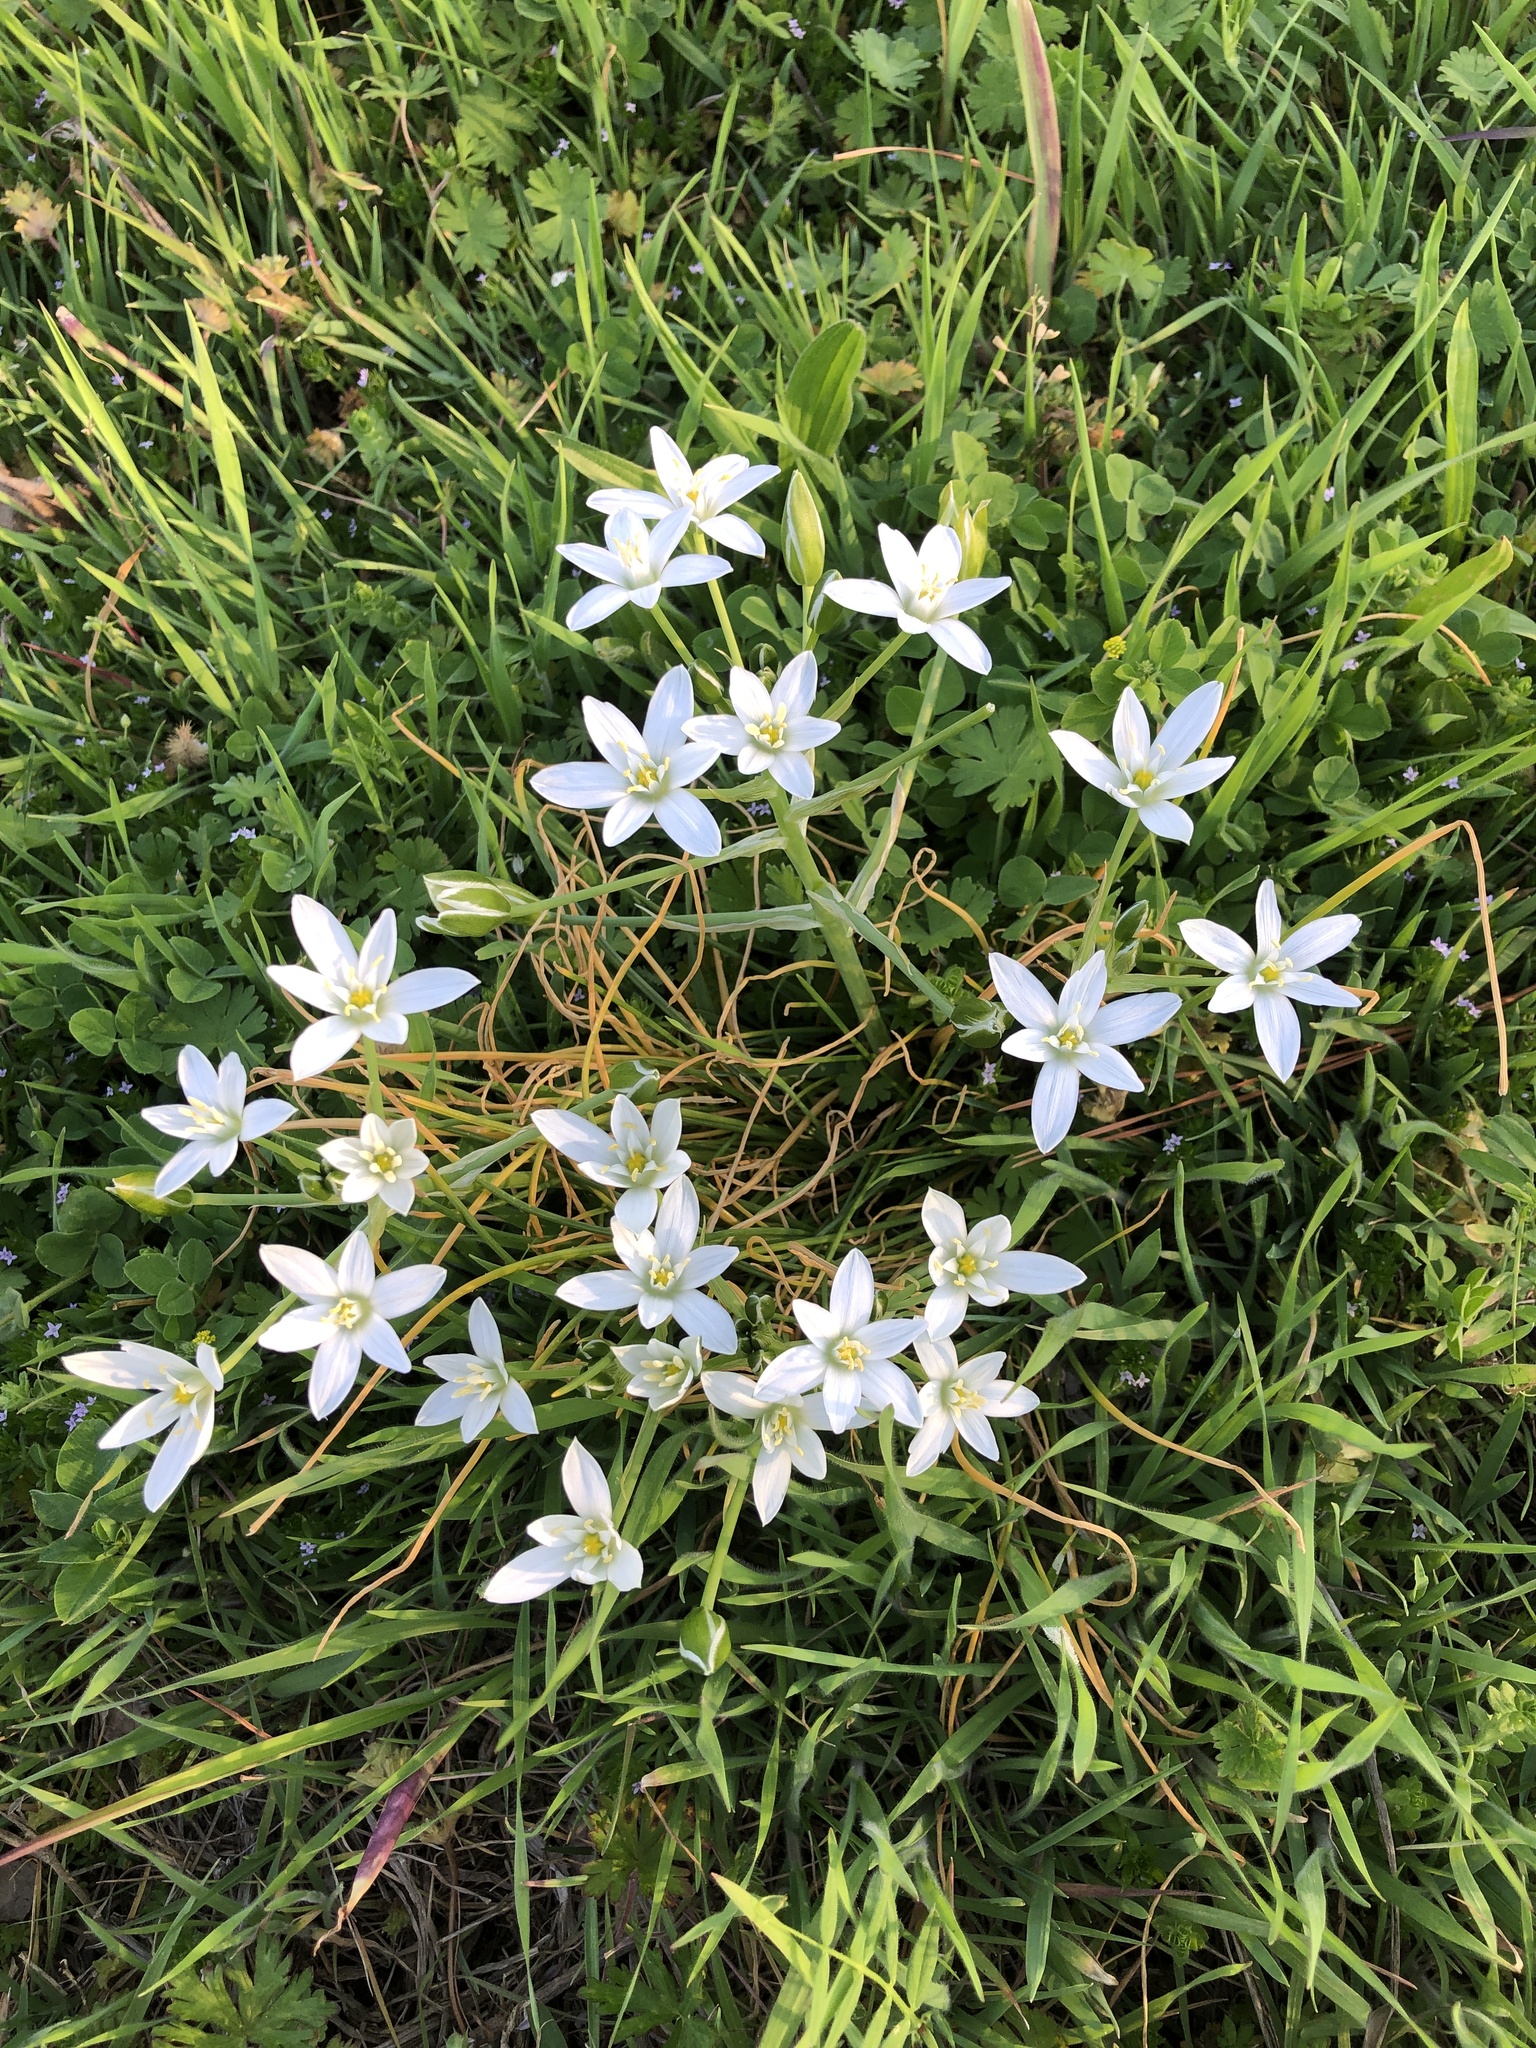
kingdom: Plantae
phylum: Tracheophyta
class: Liliopsida
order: Asparagales
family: Asparagaceae
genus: Ornithogalum
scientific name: Ornithogalum umbellatum
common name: Garden star-of-bethlehem
